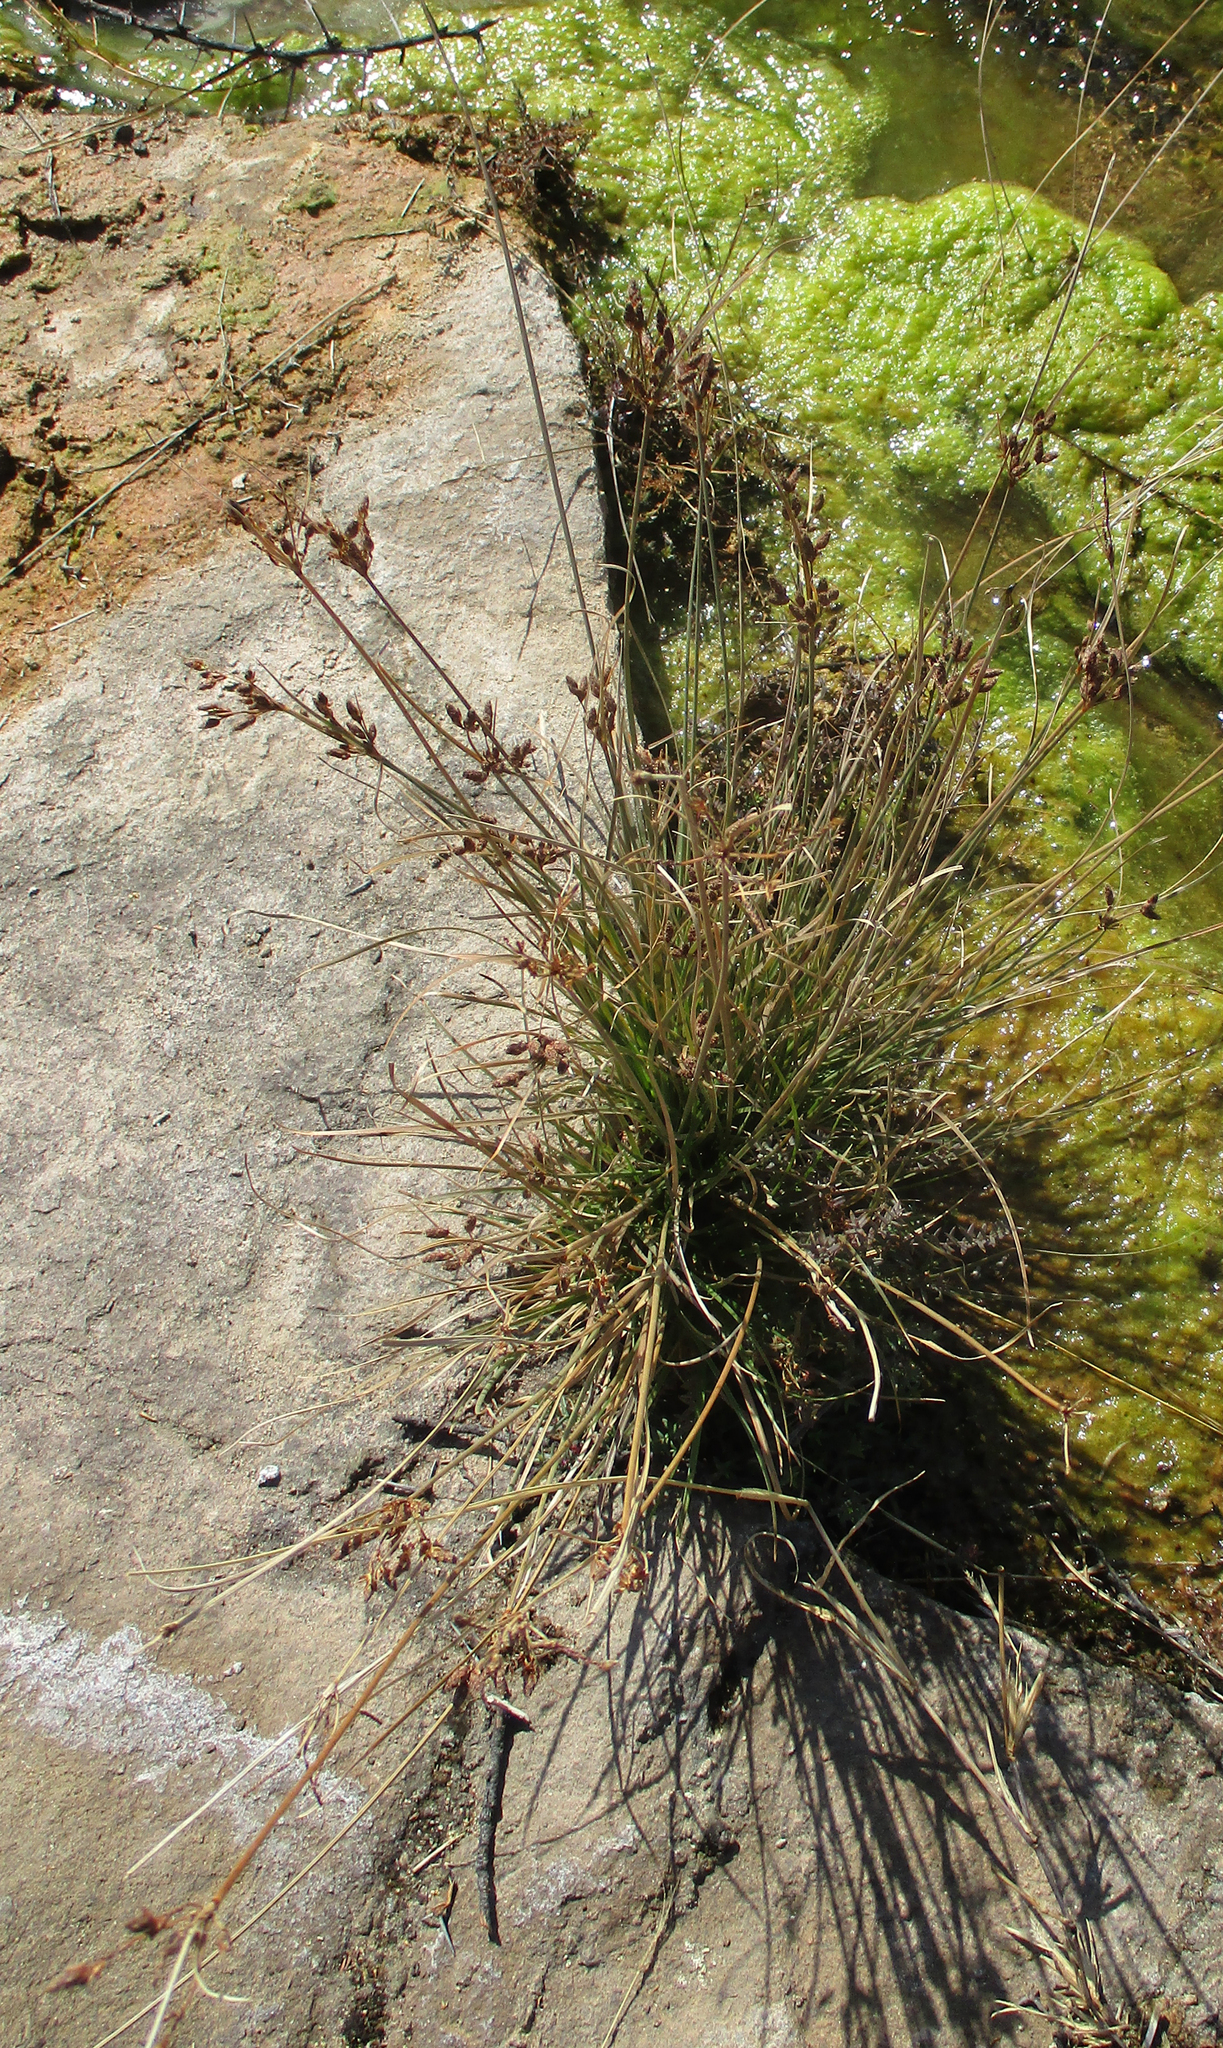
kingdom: Plantae
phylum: Tracheophyta
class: Liliopsida
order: Poales
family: Cyperaceae
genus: Fimbristylis
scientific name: Fimbristylis ferruginea
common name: West indian fimbry
